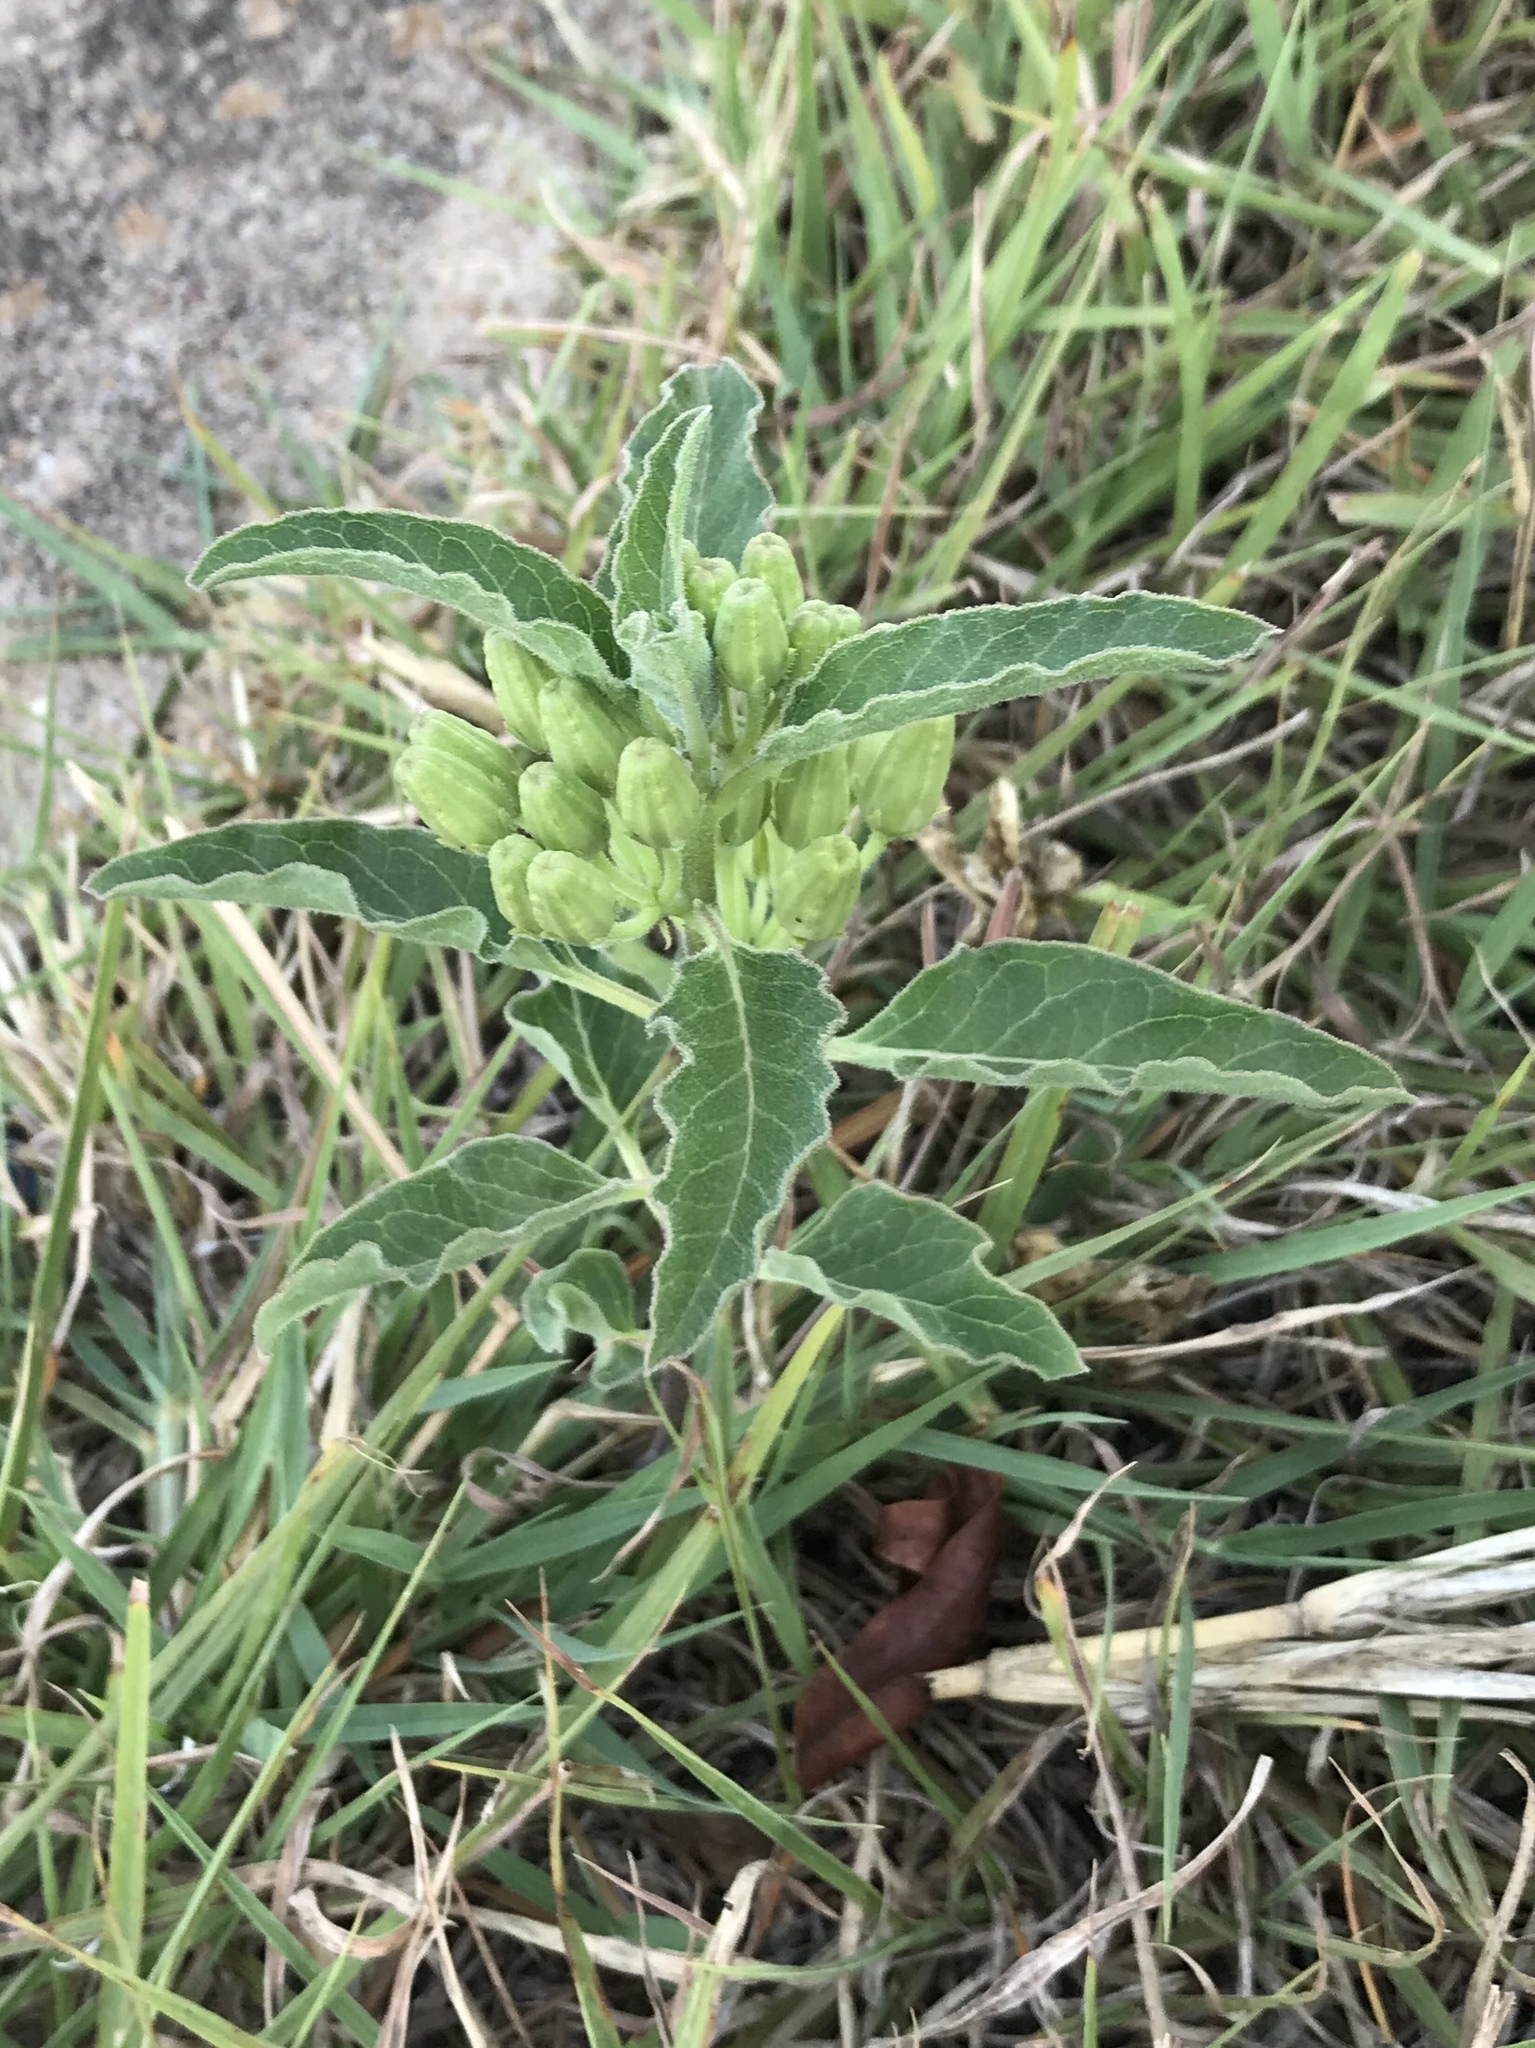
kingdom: Plantae
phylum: Tracheophyta
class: Magnoliopsida
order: Gentianales
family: Apocynaceae
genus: Asclepias
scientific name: Asclepias oenotheroides
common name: Zizotes milkweed
